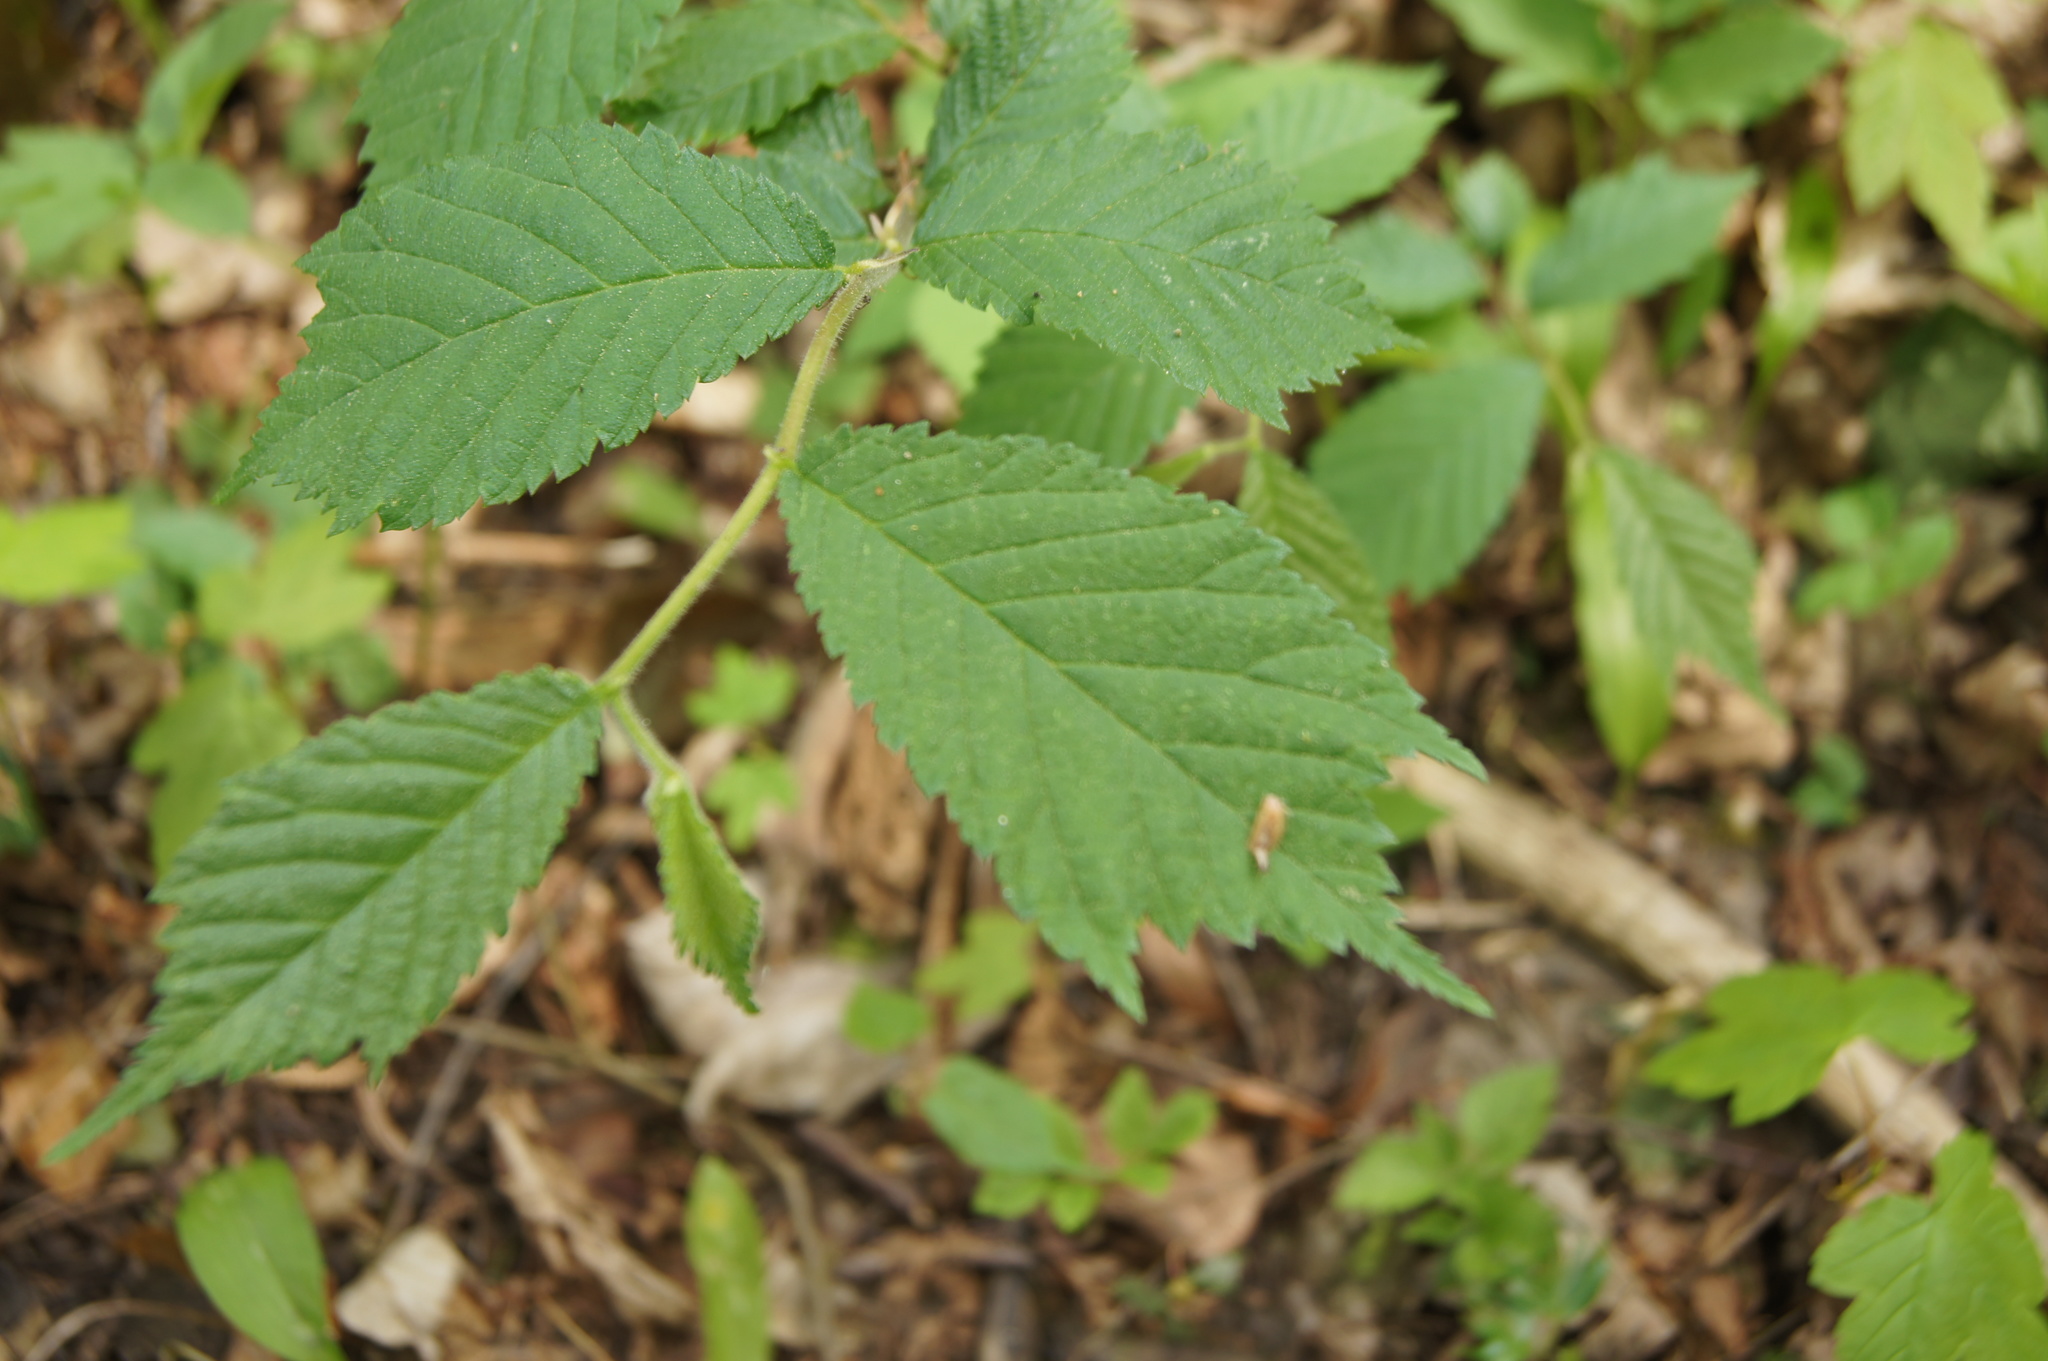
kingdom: Plantae
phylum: Tracheophyta
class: Magnoliopsida
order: Rosales
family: Ulmaceae
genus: Ulmus
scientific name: Ulmus glabra
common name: Wych elm
